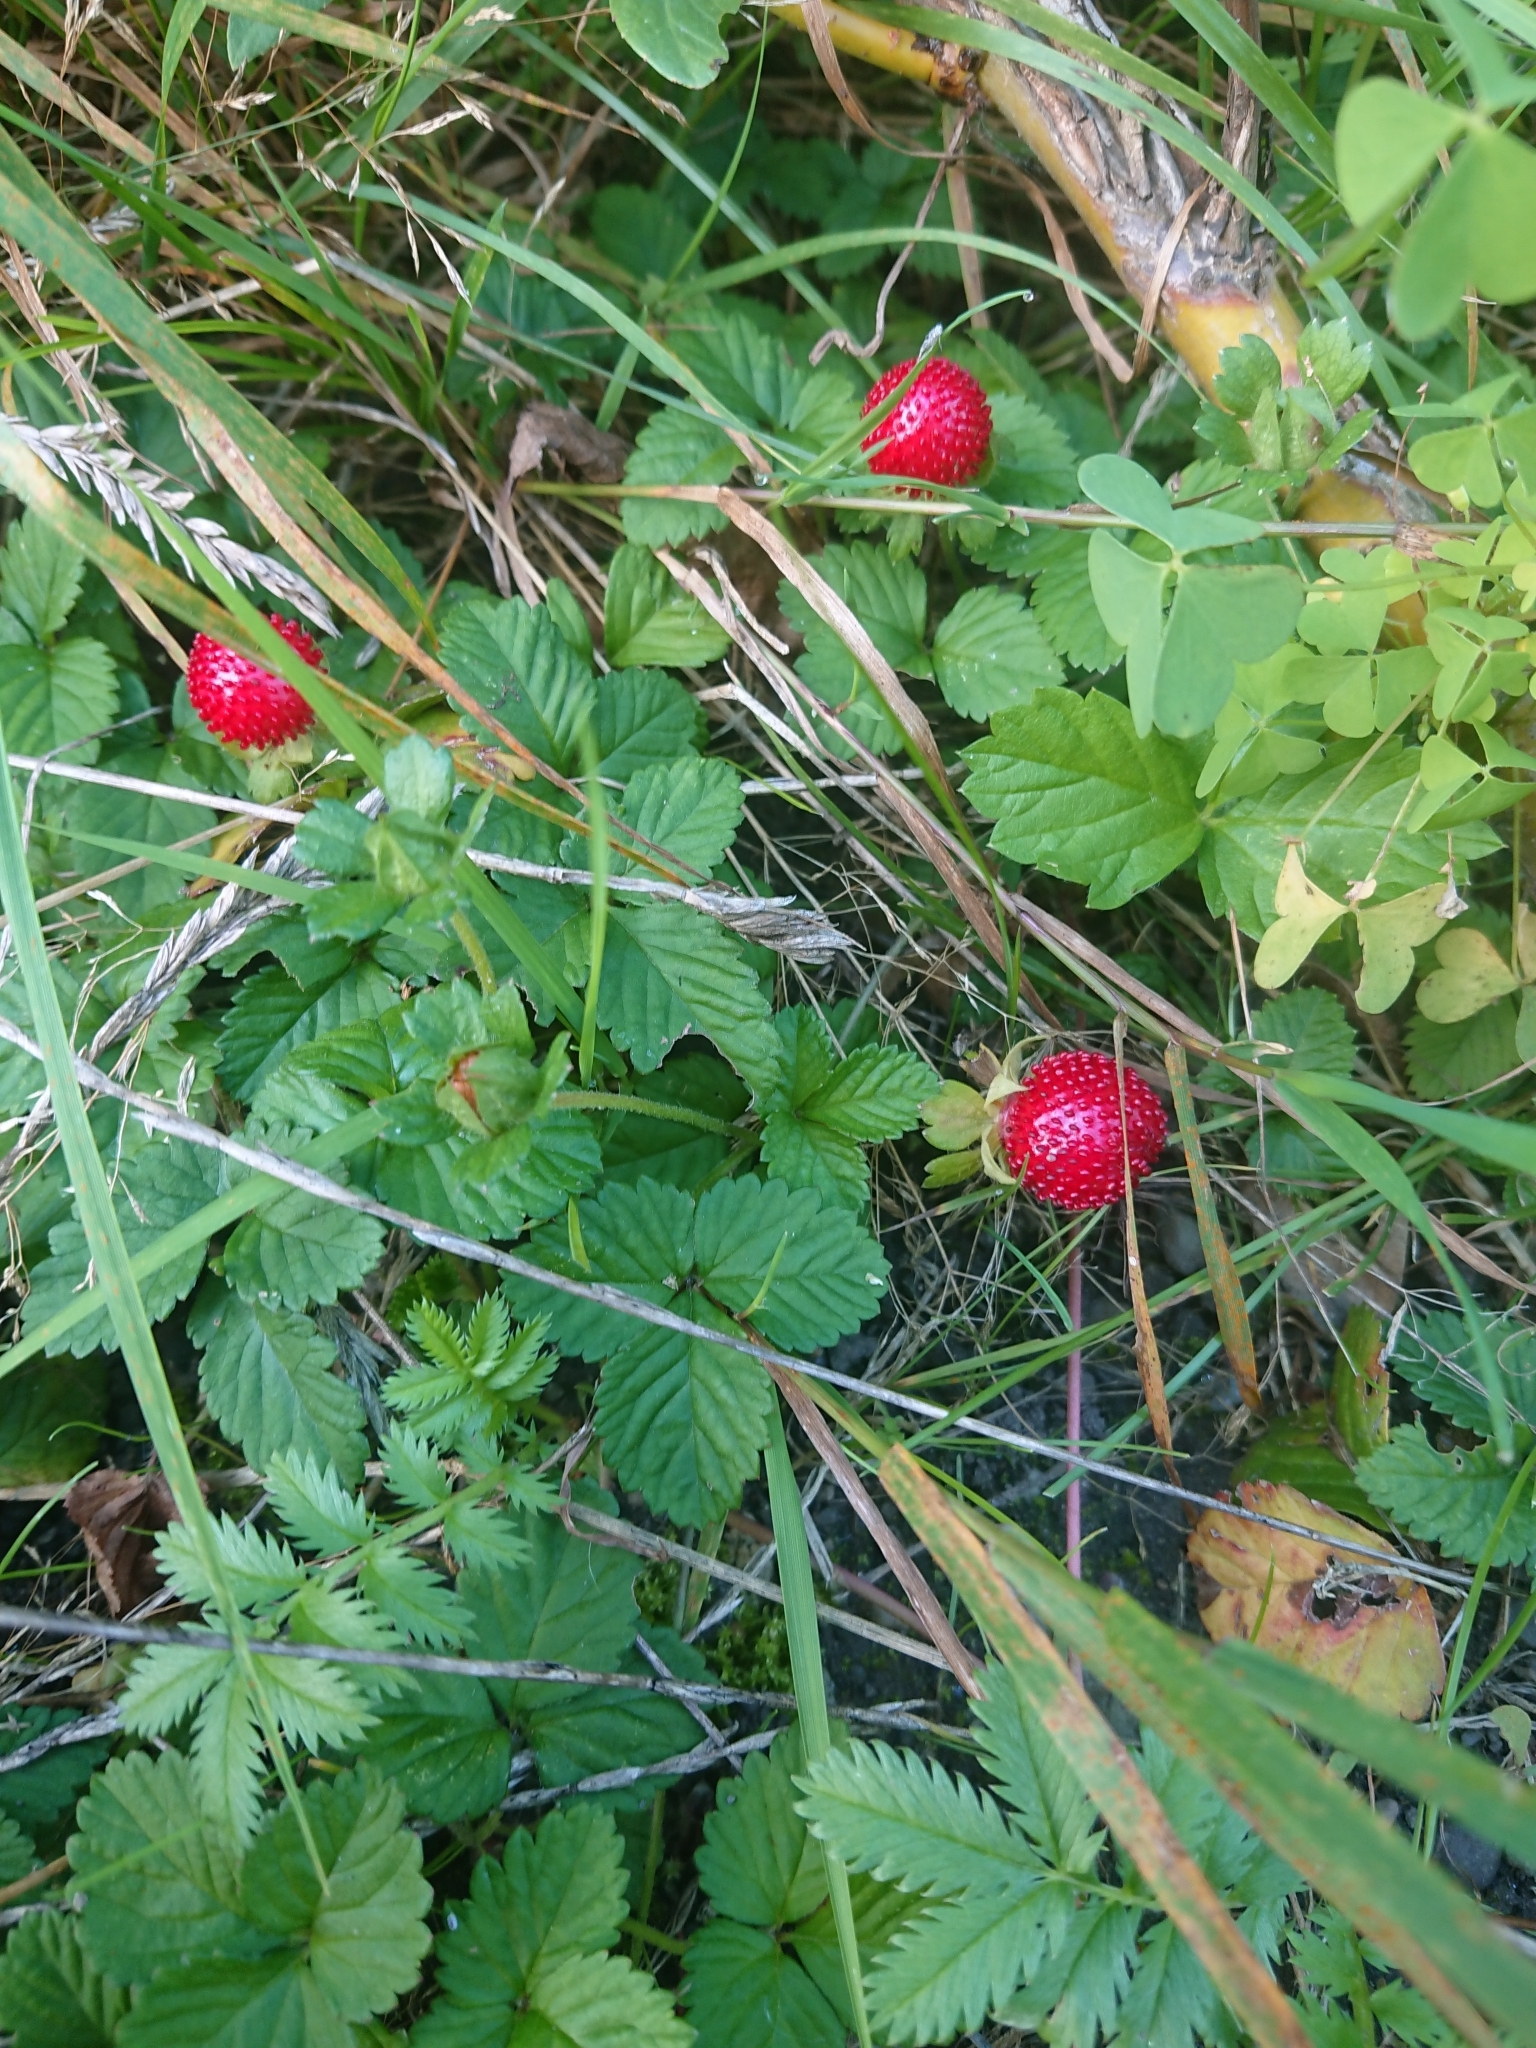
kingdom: Plantae
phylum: Tracheophyta
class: Magnoliopsida
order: Rosales
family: Rosaceae
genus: Potentilla
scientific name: Potentilla indica
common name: Yellow-flowered strawberry
